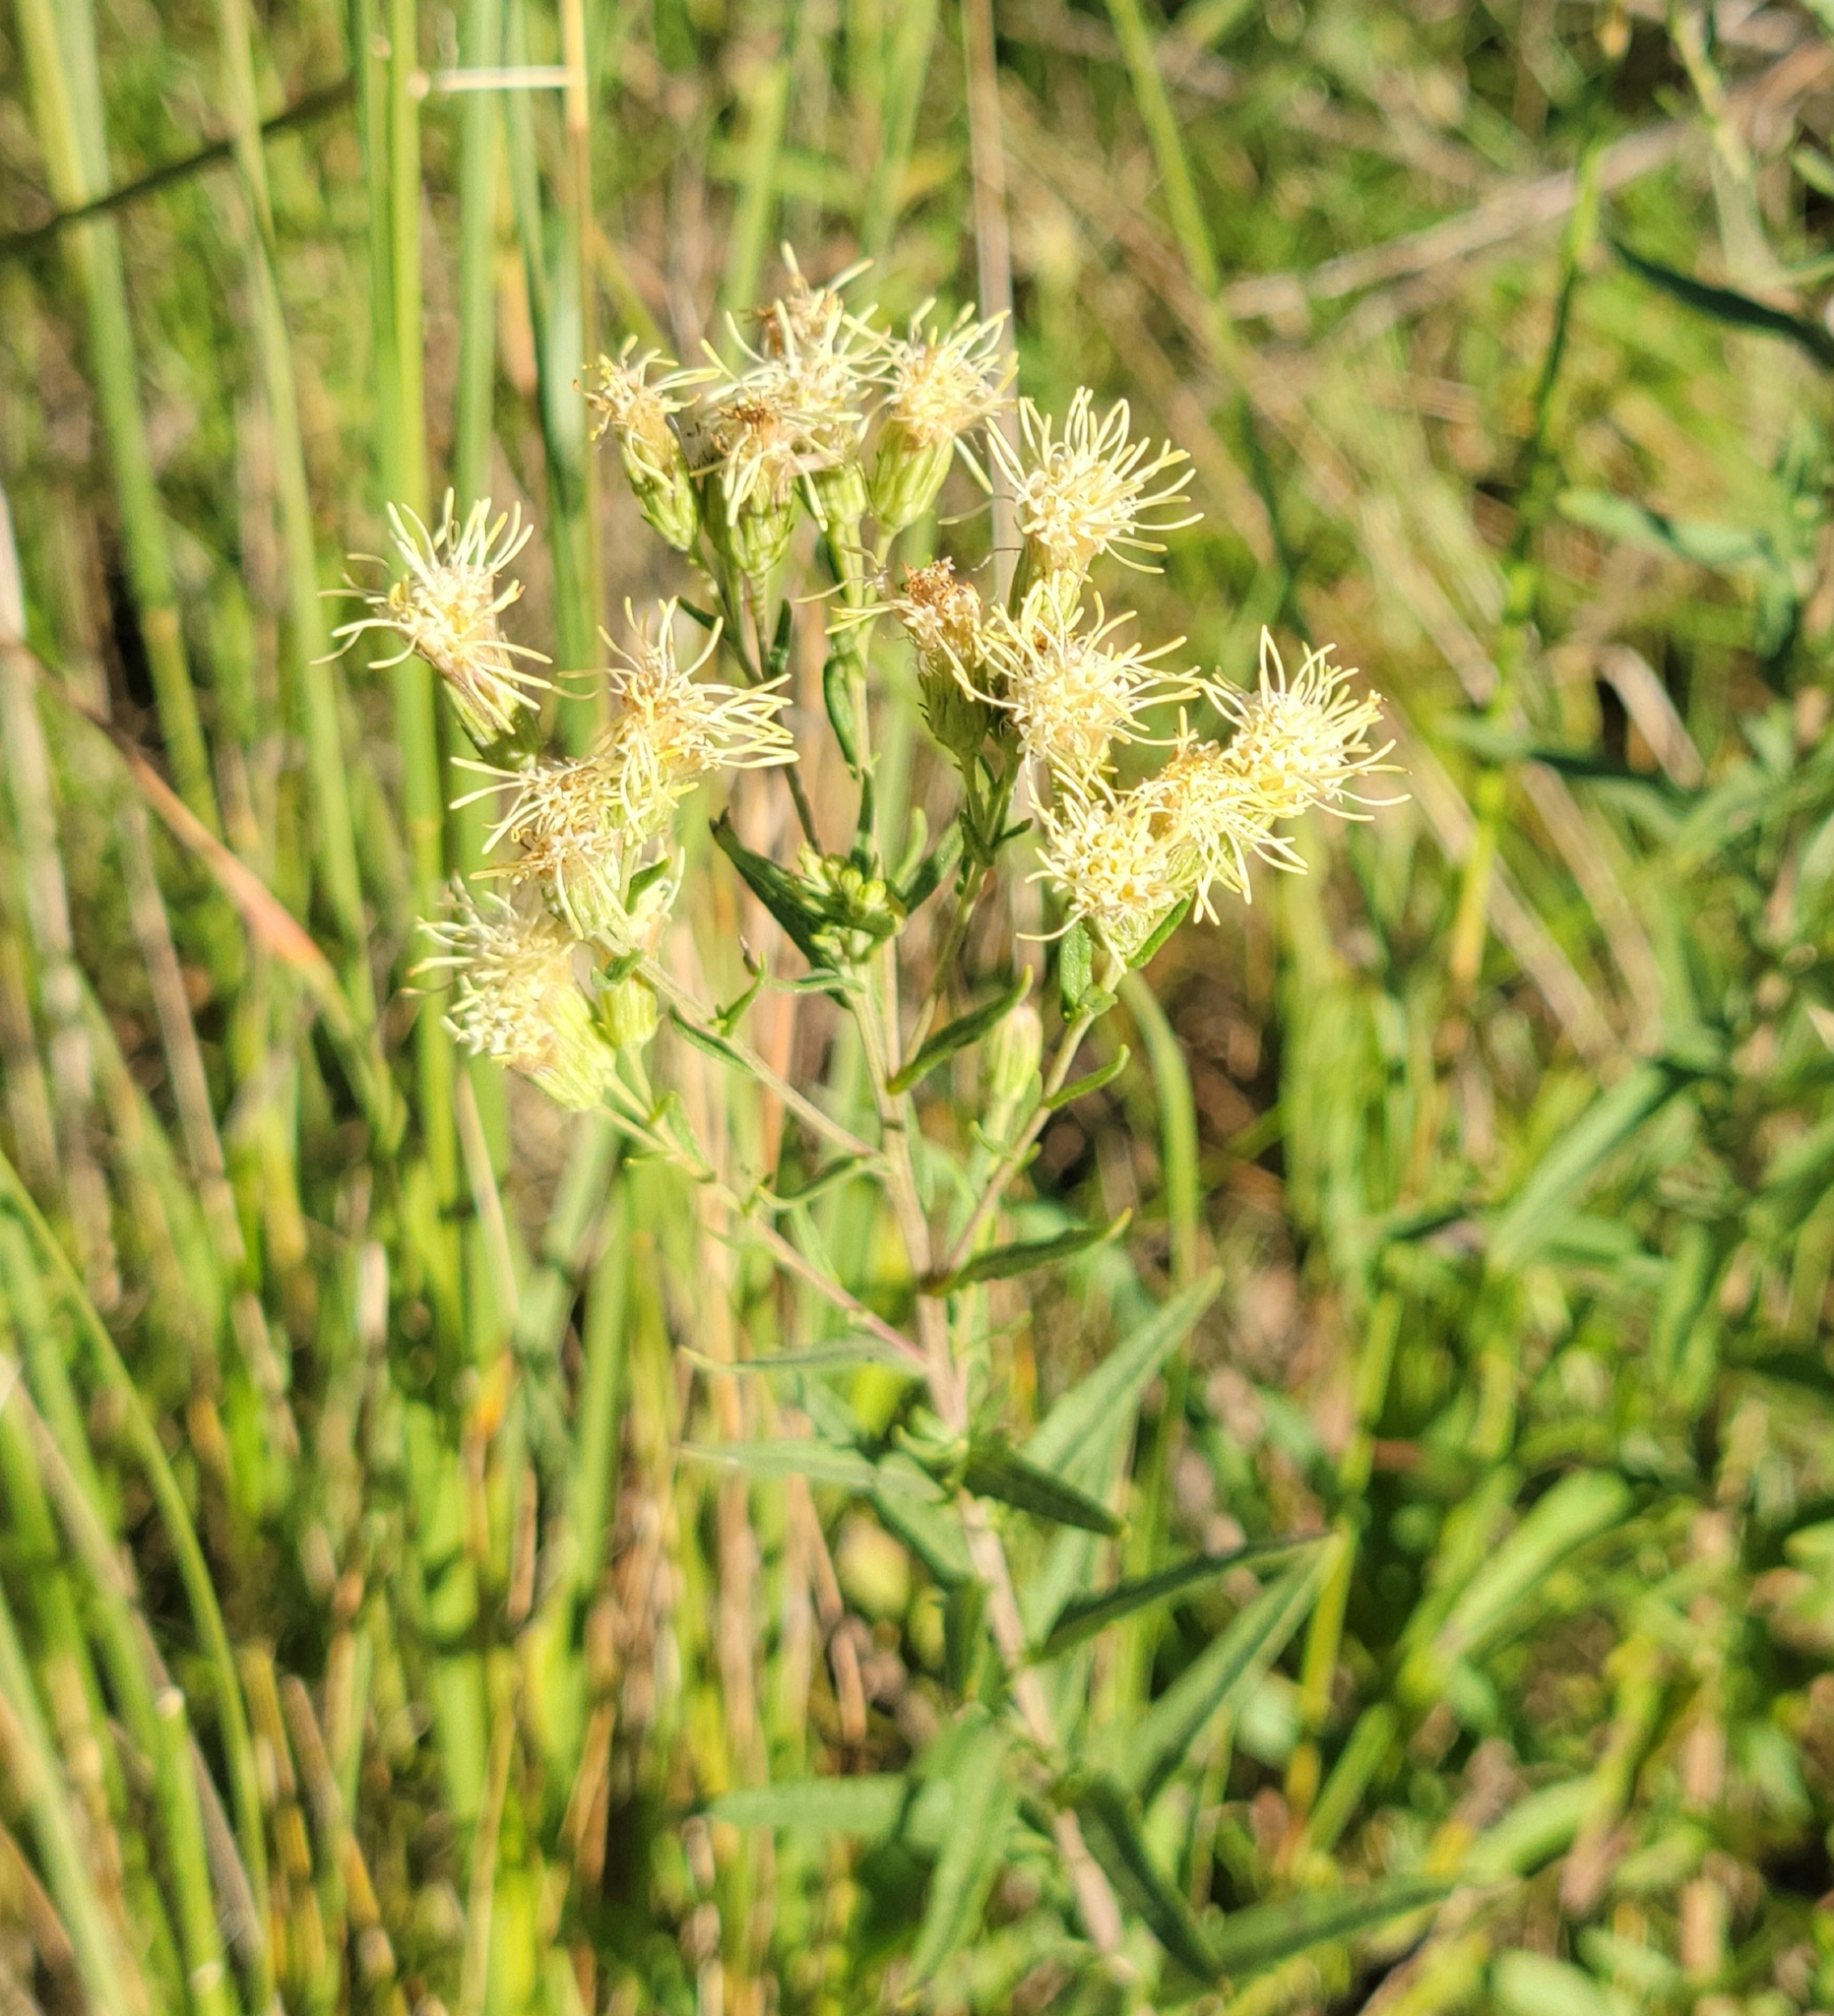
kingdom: Plantae
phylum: Tracheophyta
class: Magnoliopsida
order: Asterales
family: Asteraceae
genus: Brickellia
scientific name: Brickellia eupatorioides
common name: False boneset
